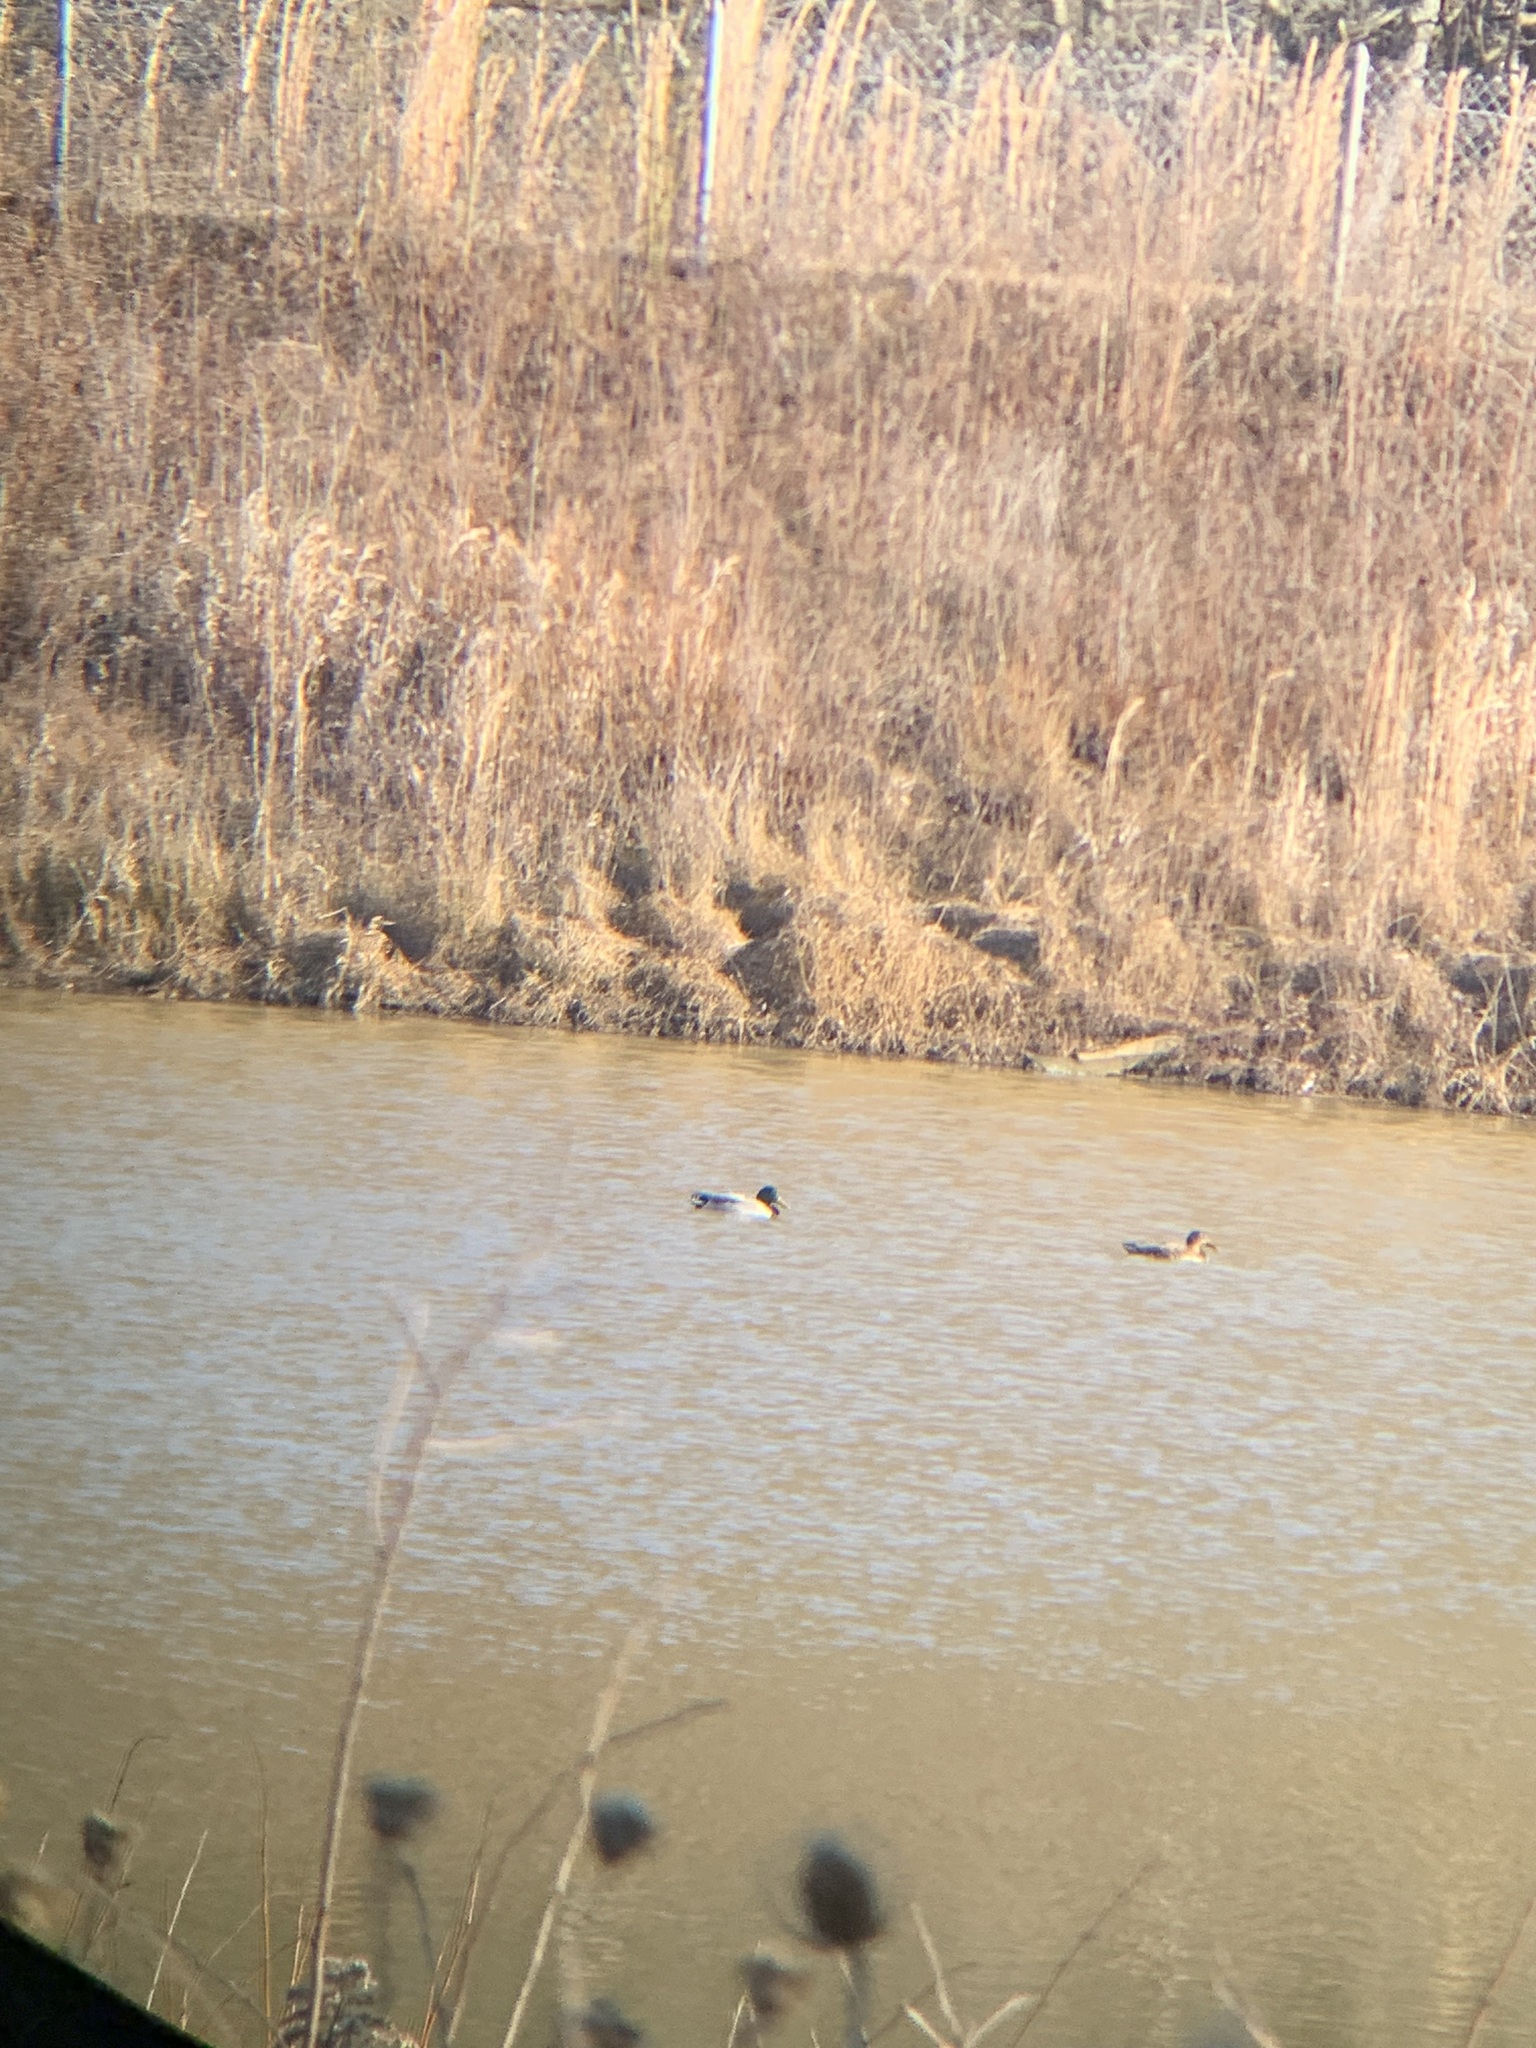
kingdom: Animalia
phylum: Chordata
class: Aves
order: Anseriformes
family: Anatidae
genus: Anas
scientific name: Anas platyrhynchos
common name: Mallard
